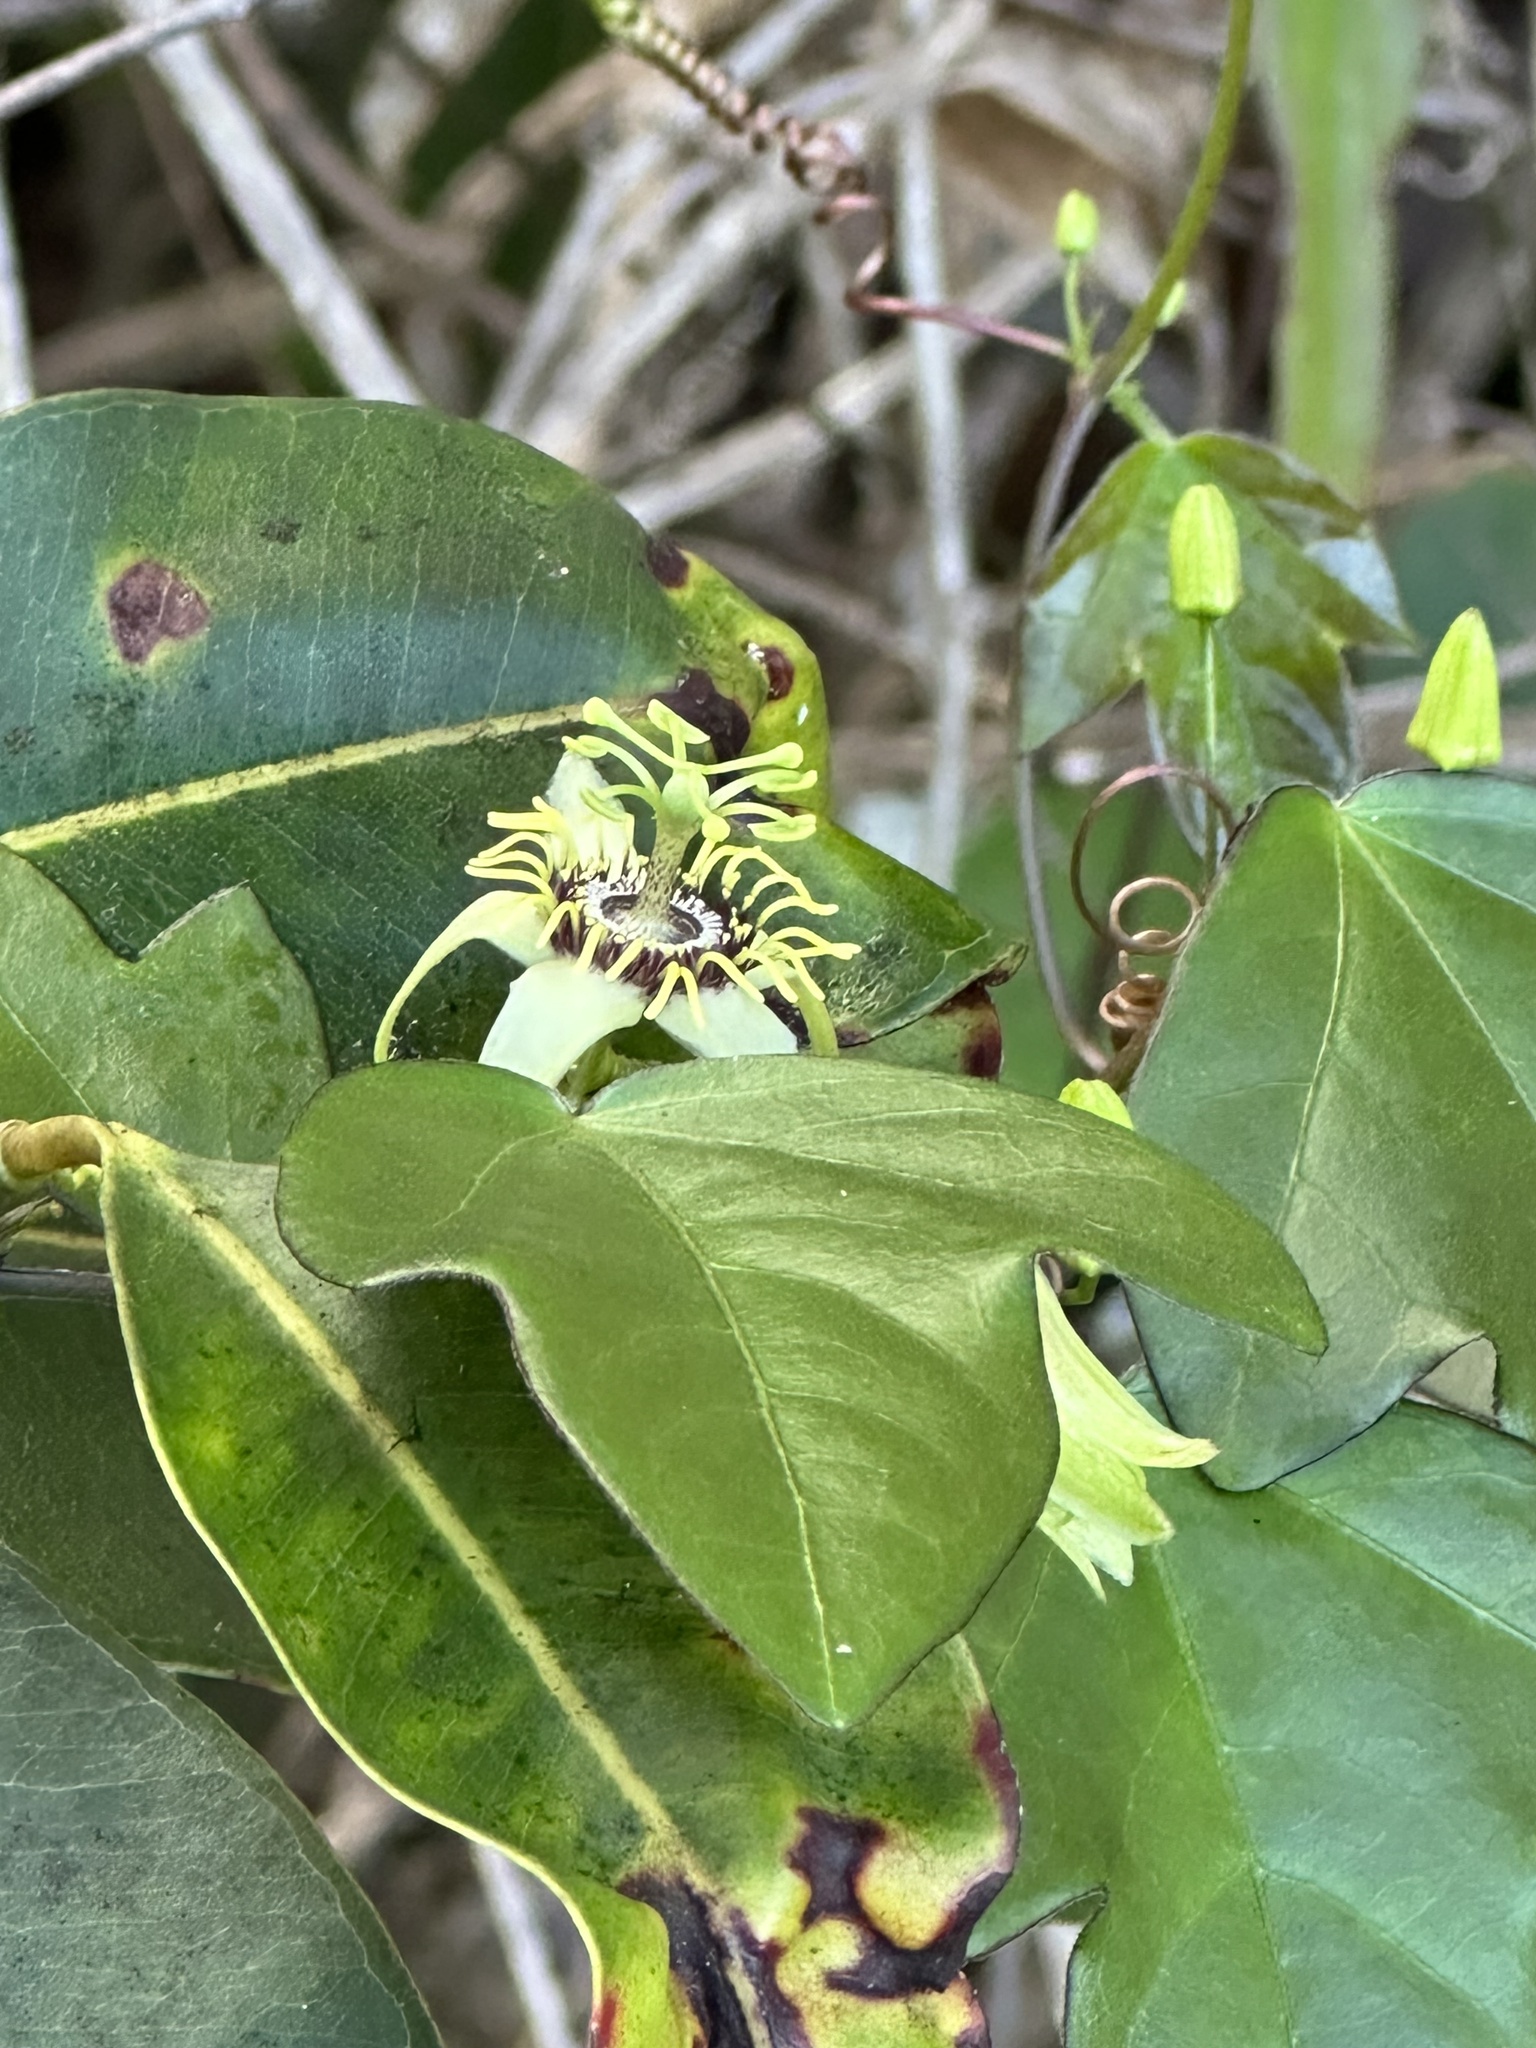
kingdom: Plantae
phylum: Tracheophyta
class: Magnoliopsida
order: Malpighiales
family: Passifloraceae
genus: Passiflora
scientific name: Passiflora suberosa
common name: Wild passionfruit
